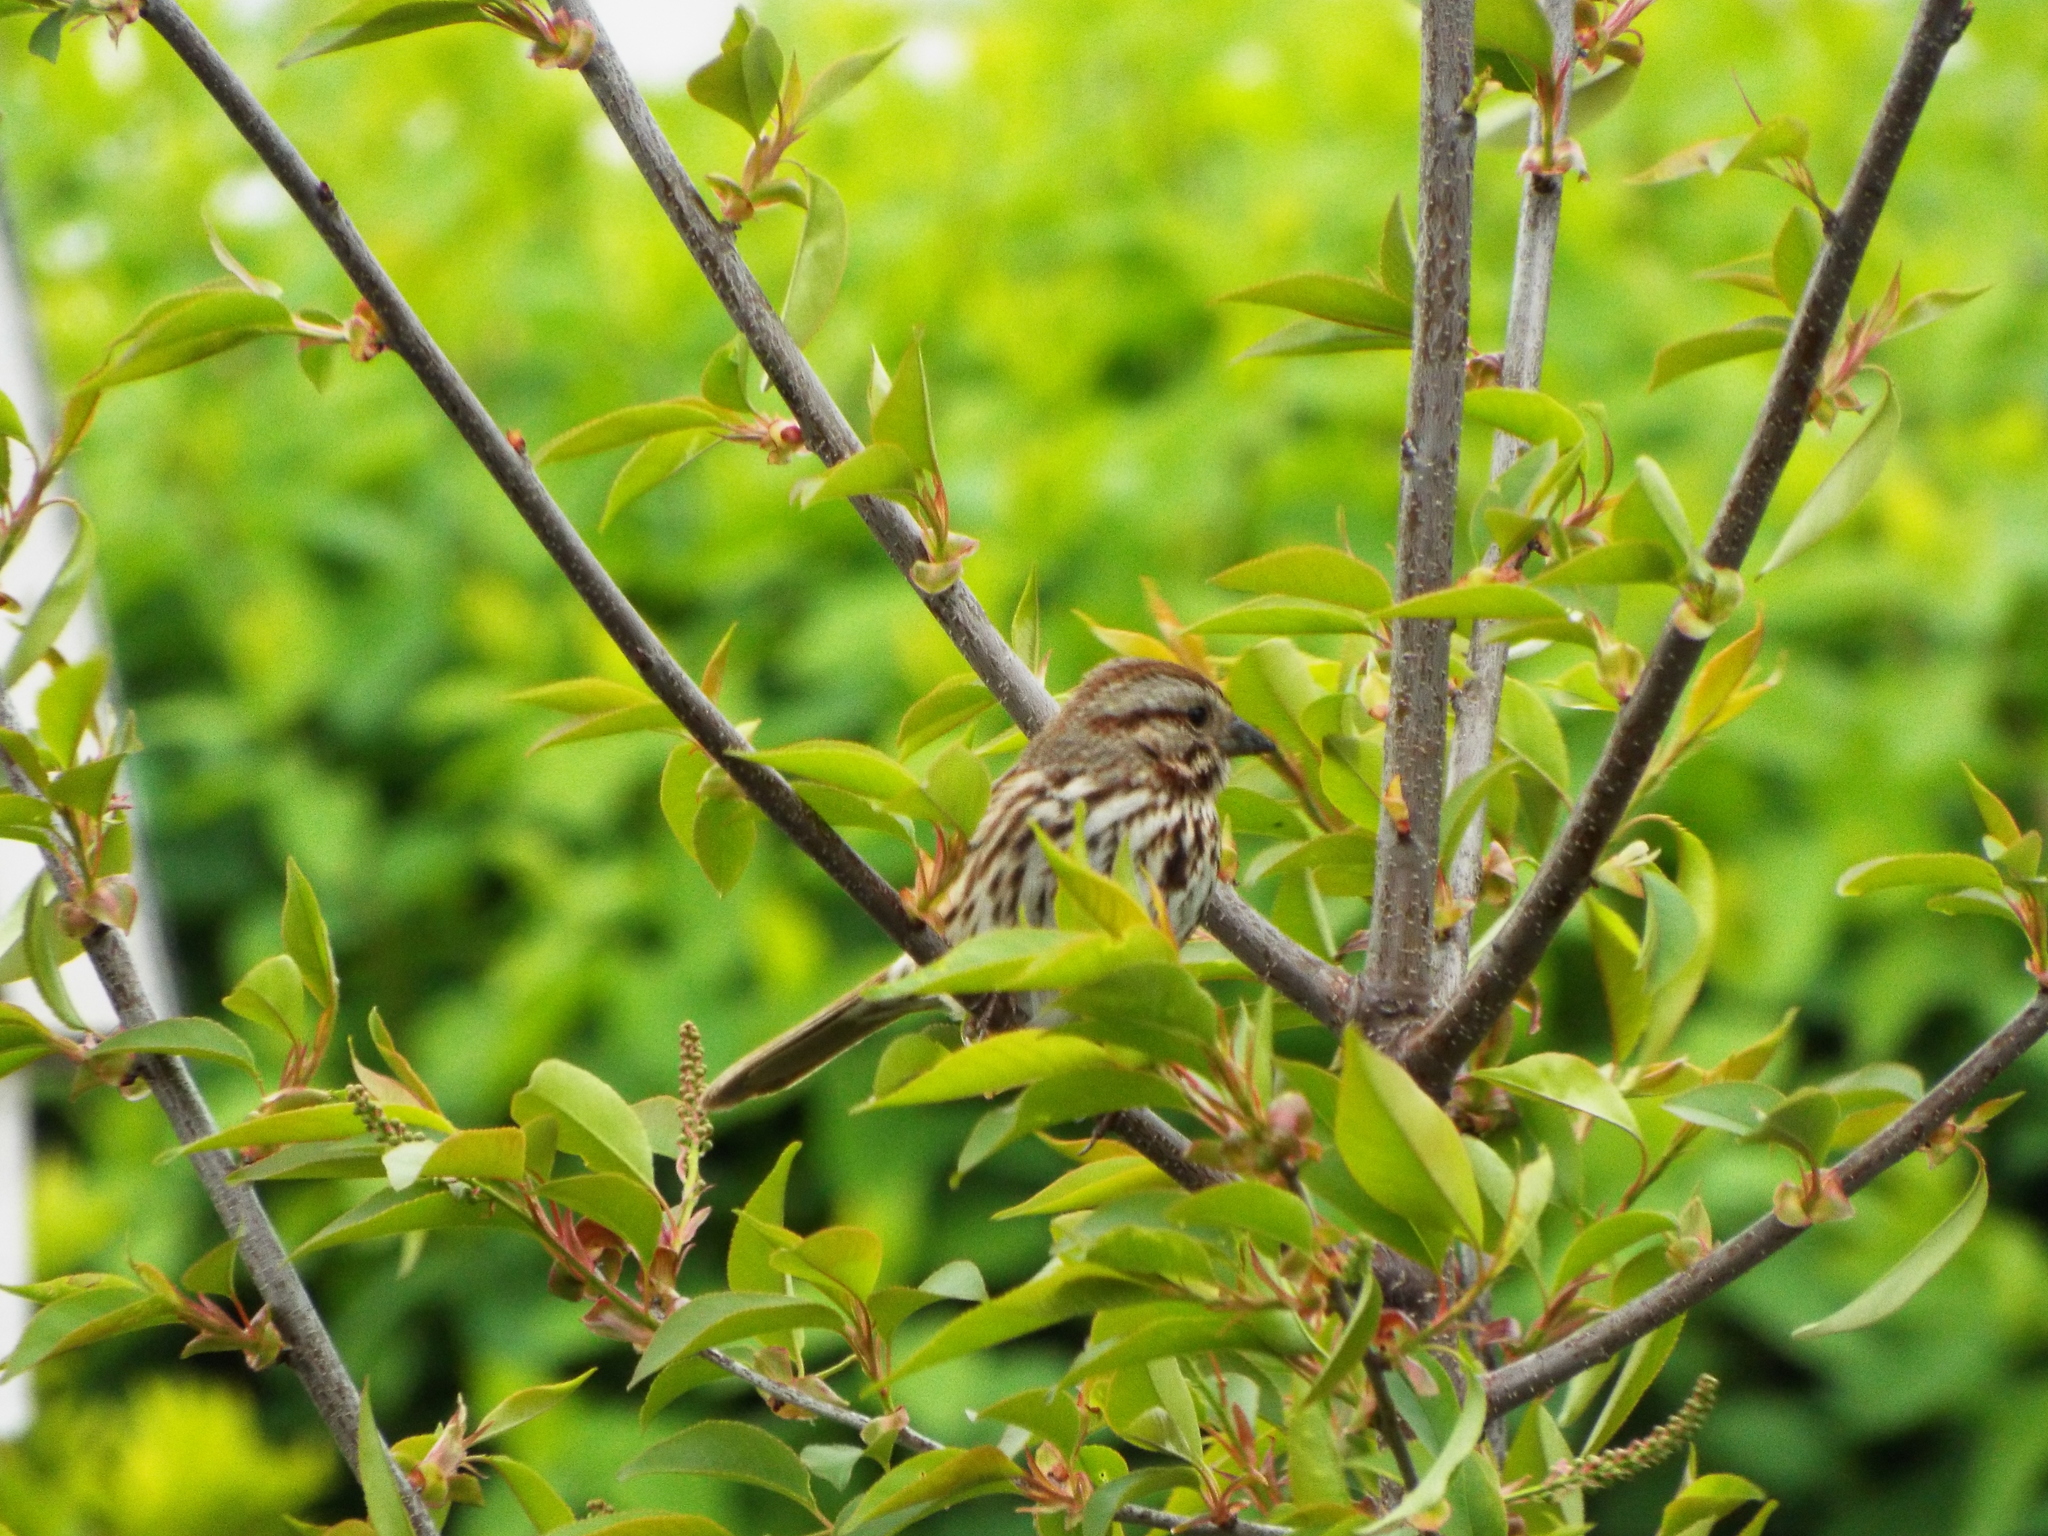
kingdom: Animalia
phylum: Chordata
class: Aves
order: Passeriformes
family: Passerellidae
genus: Melospiza
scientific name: Melospiza melodia
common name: Song sparrow
